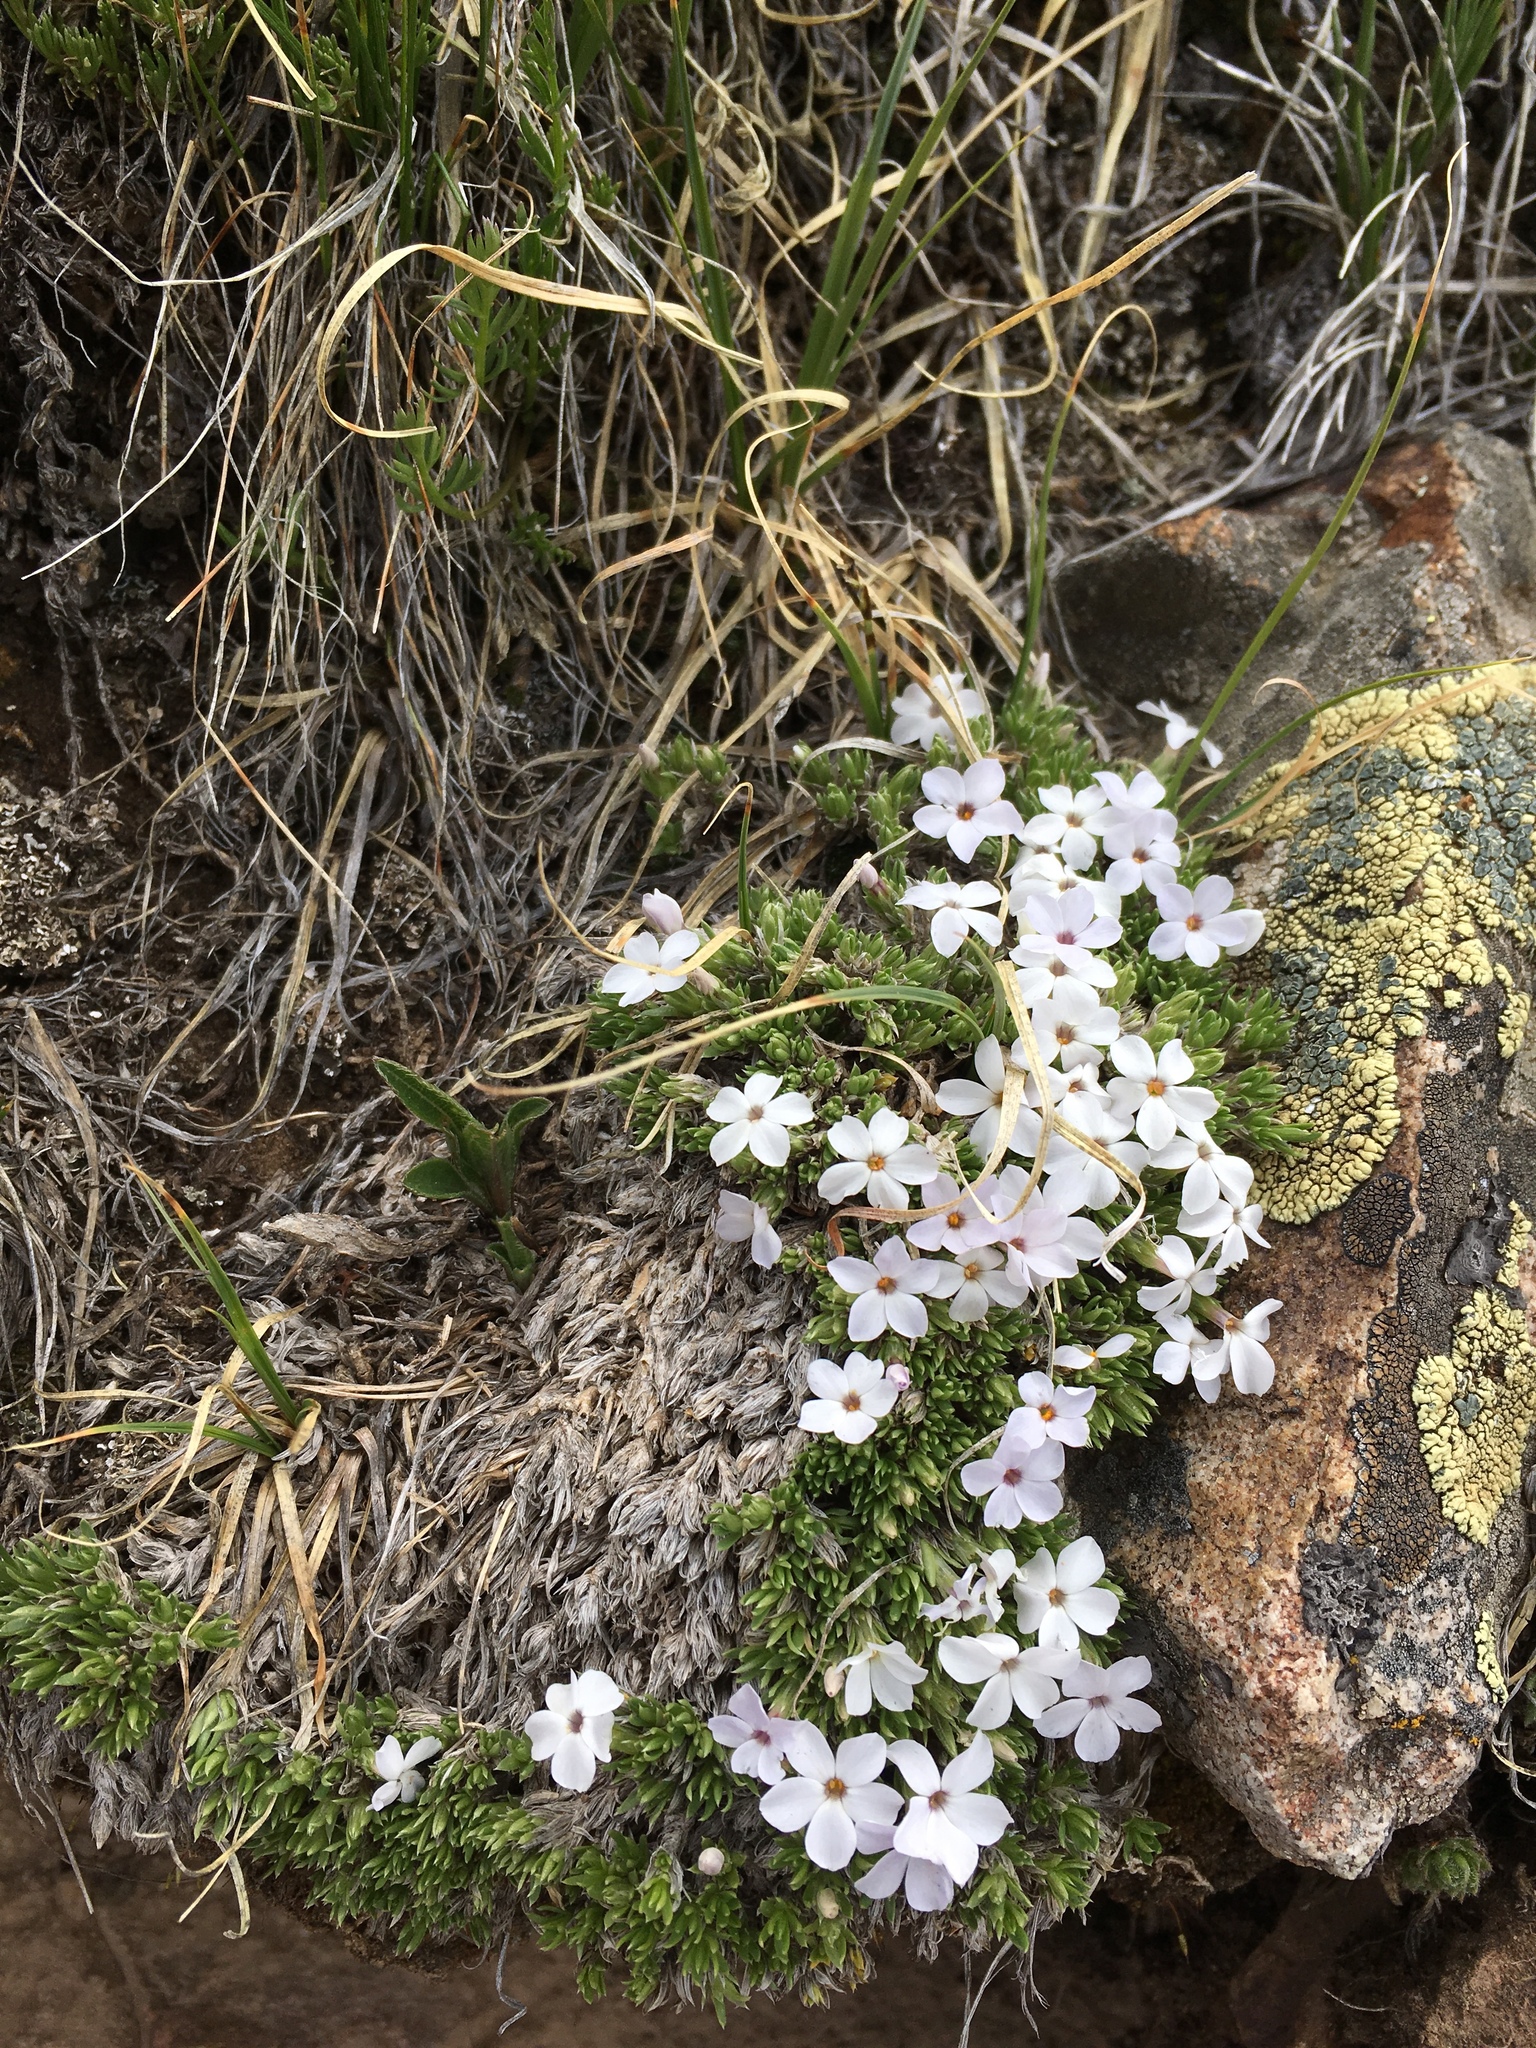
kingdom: Plantae
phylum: Tracheophyta
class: Magnoliopsida
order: Ericales
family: Polemoniaceae
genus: Phlox
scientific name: Phlox condensata
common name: Compact phlox
